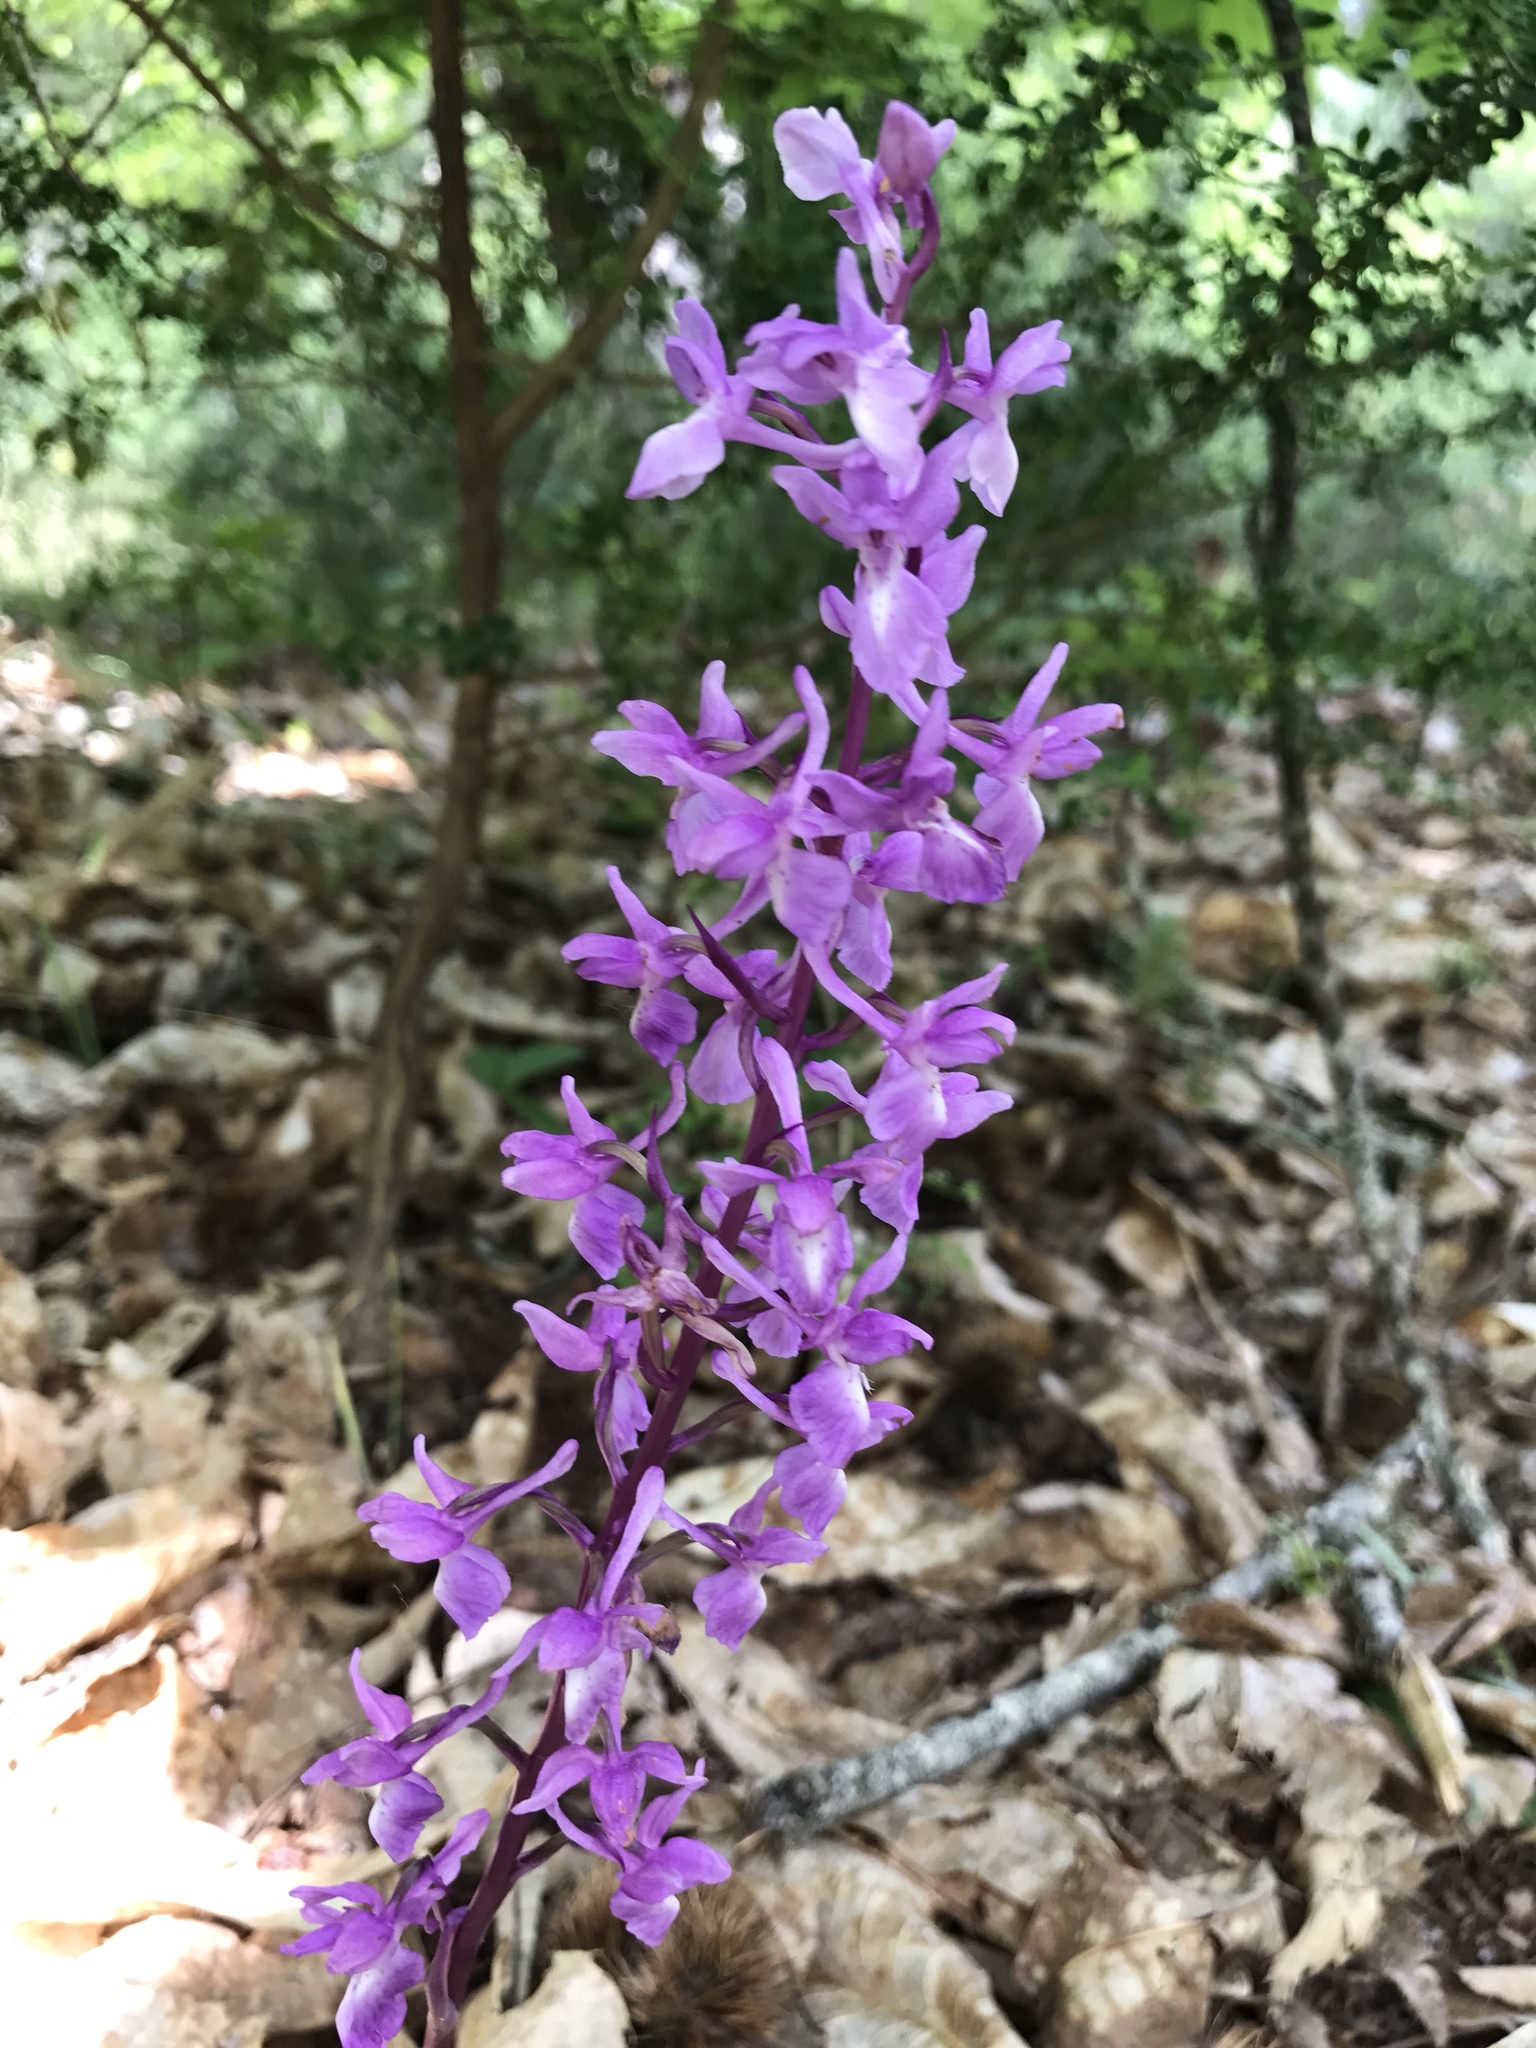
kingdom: Plantae
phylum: Tracheophyta
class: Liliopsida
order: Asparagales
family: Orchidaceae
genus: Orchis
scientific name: Orchis mascula
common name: Early-purple orchid
